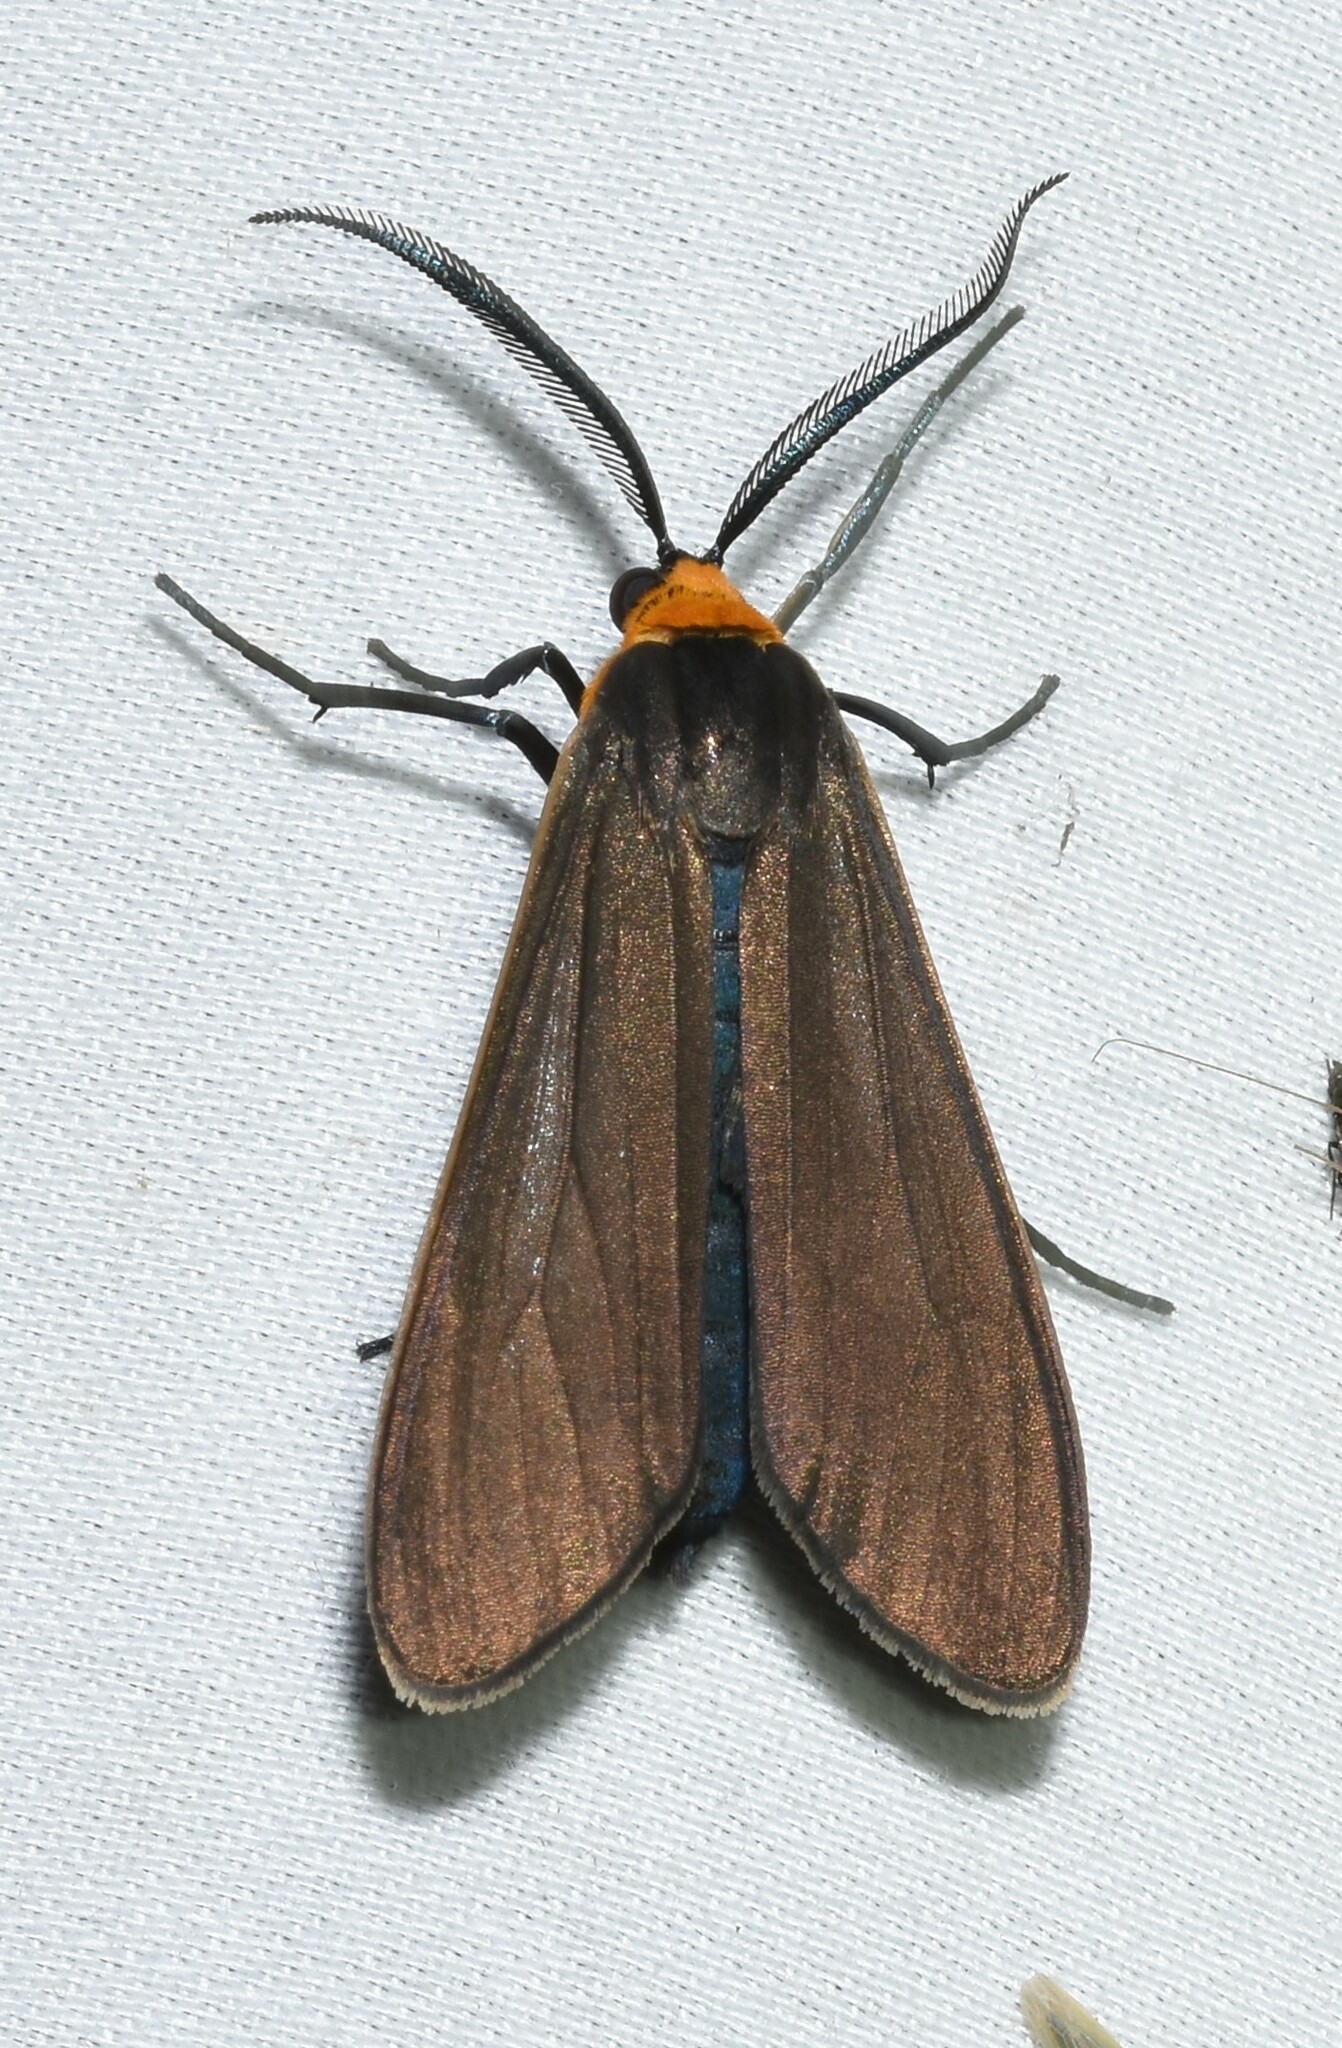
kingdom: Animalia
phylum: Arthropoda
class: Insecta
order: Lepidoptera
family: Erebidae
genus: Cisseps
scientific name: Cisseps fulvicollis
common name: Yellow-collared scape moth
